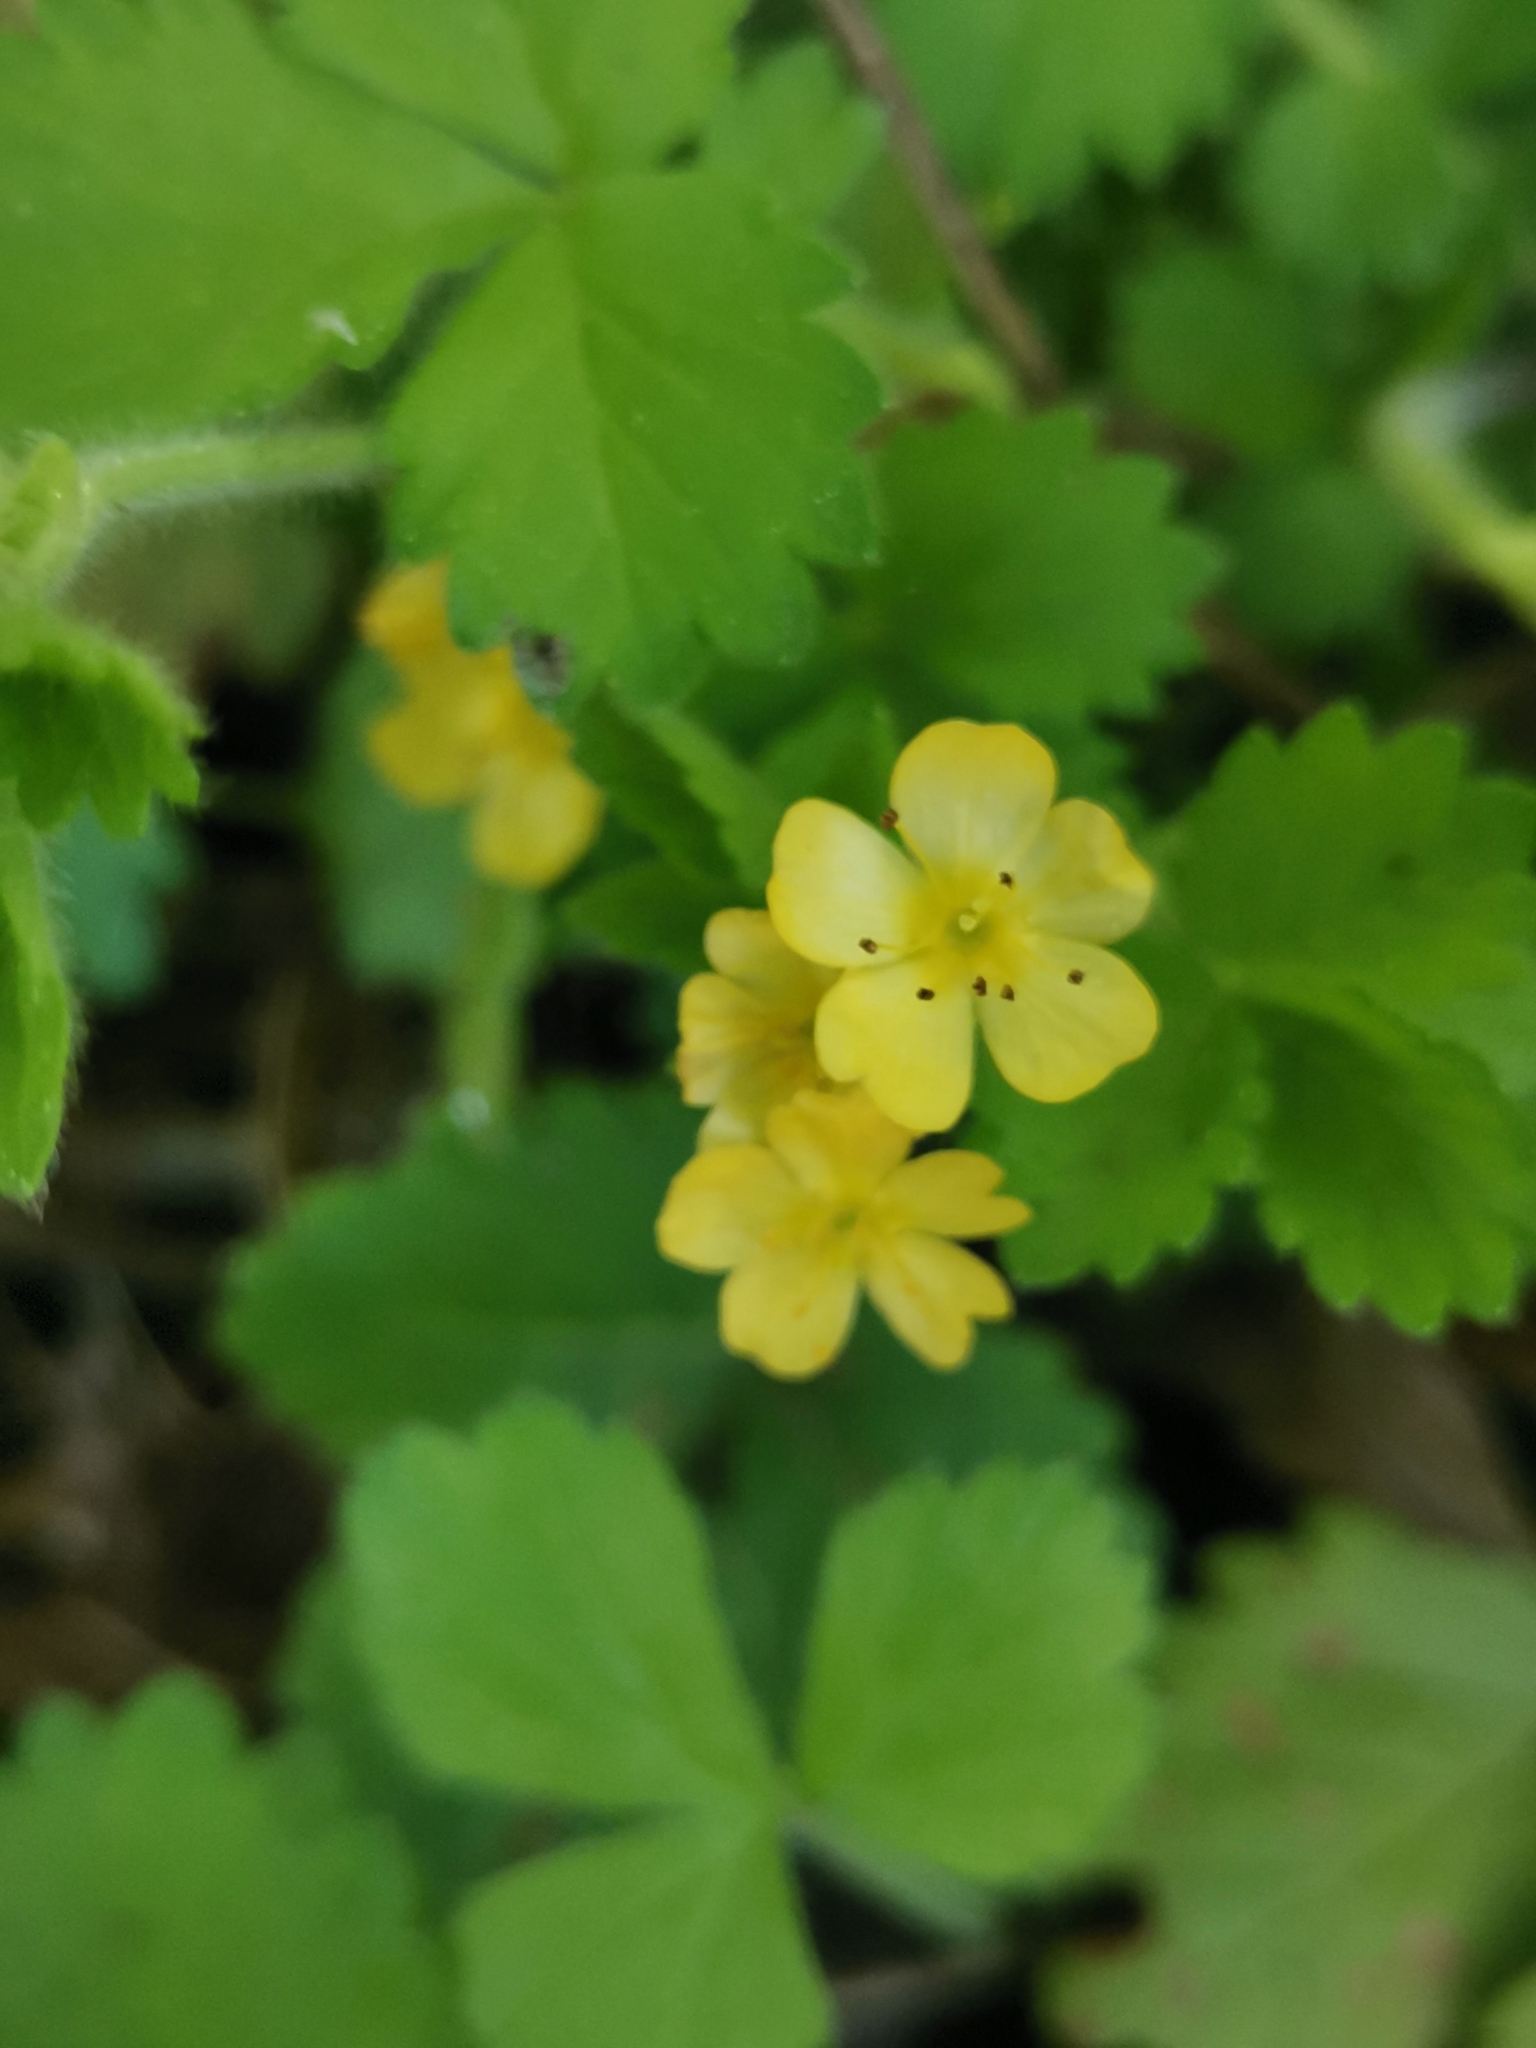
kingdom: Plantae
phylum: Tracheophyta
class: Magnoliopsida
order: Rosales
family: Rosaceae
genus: Aremonia
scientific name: Aremonia agrimonoides
